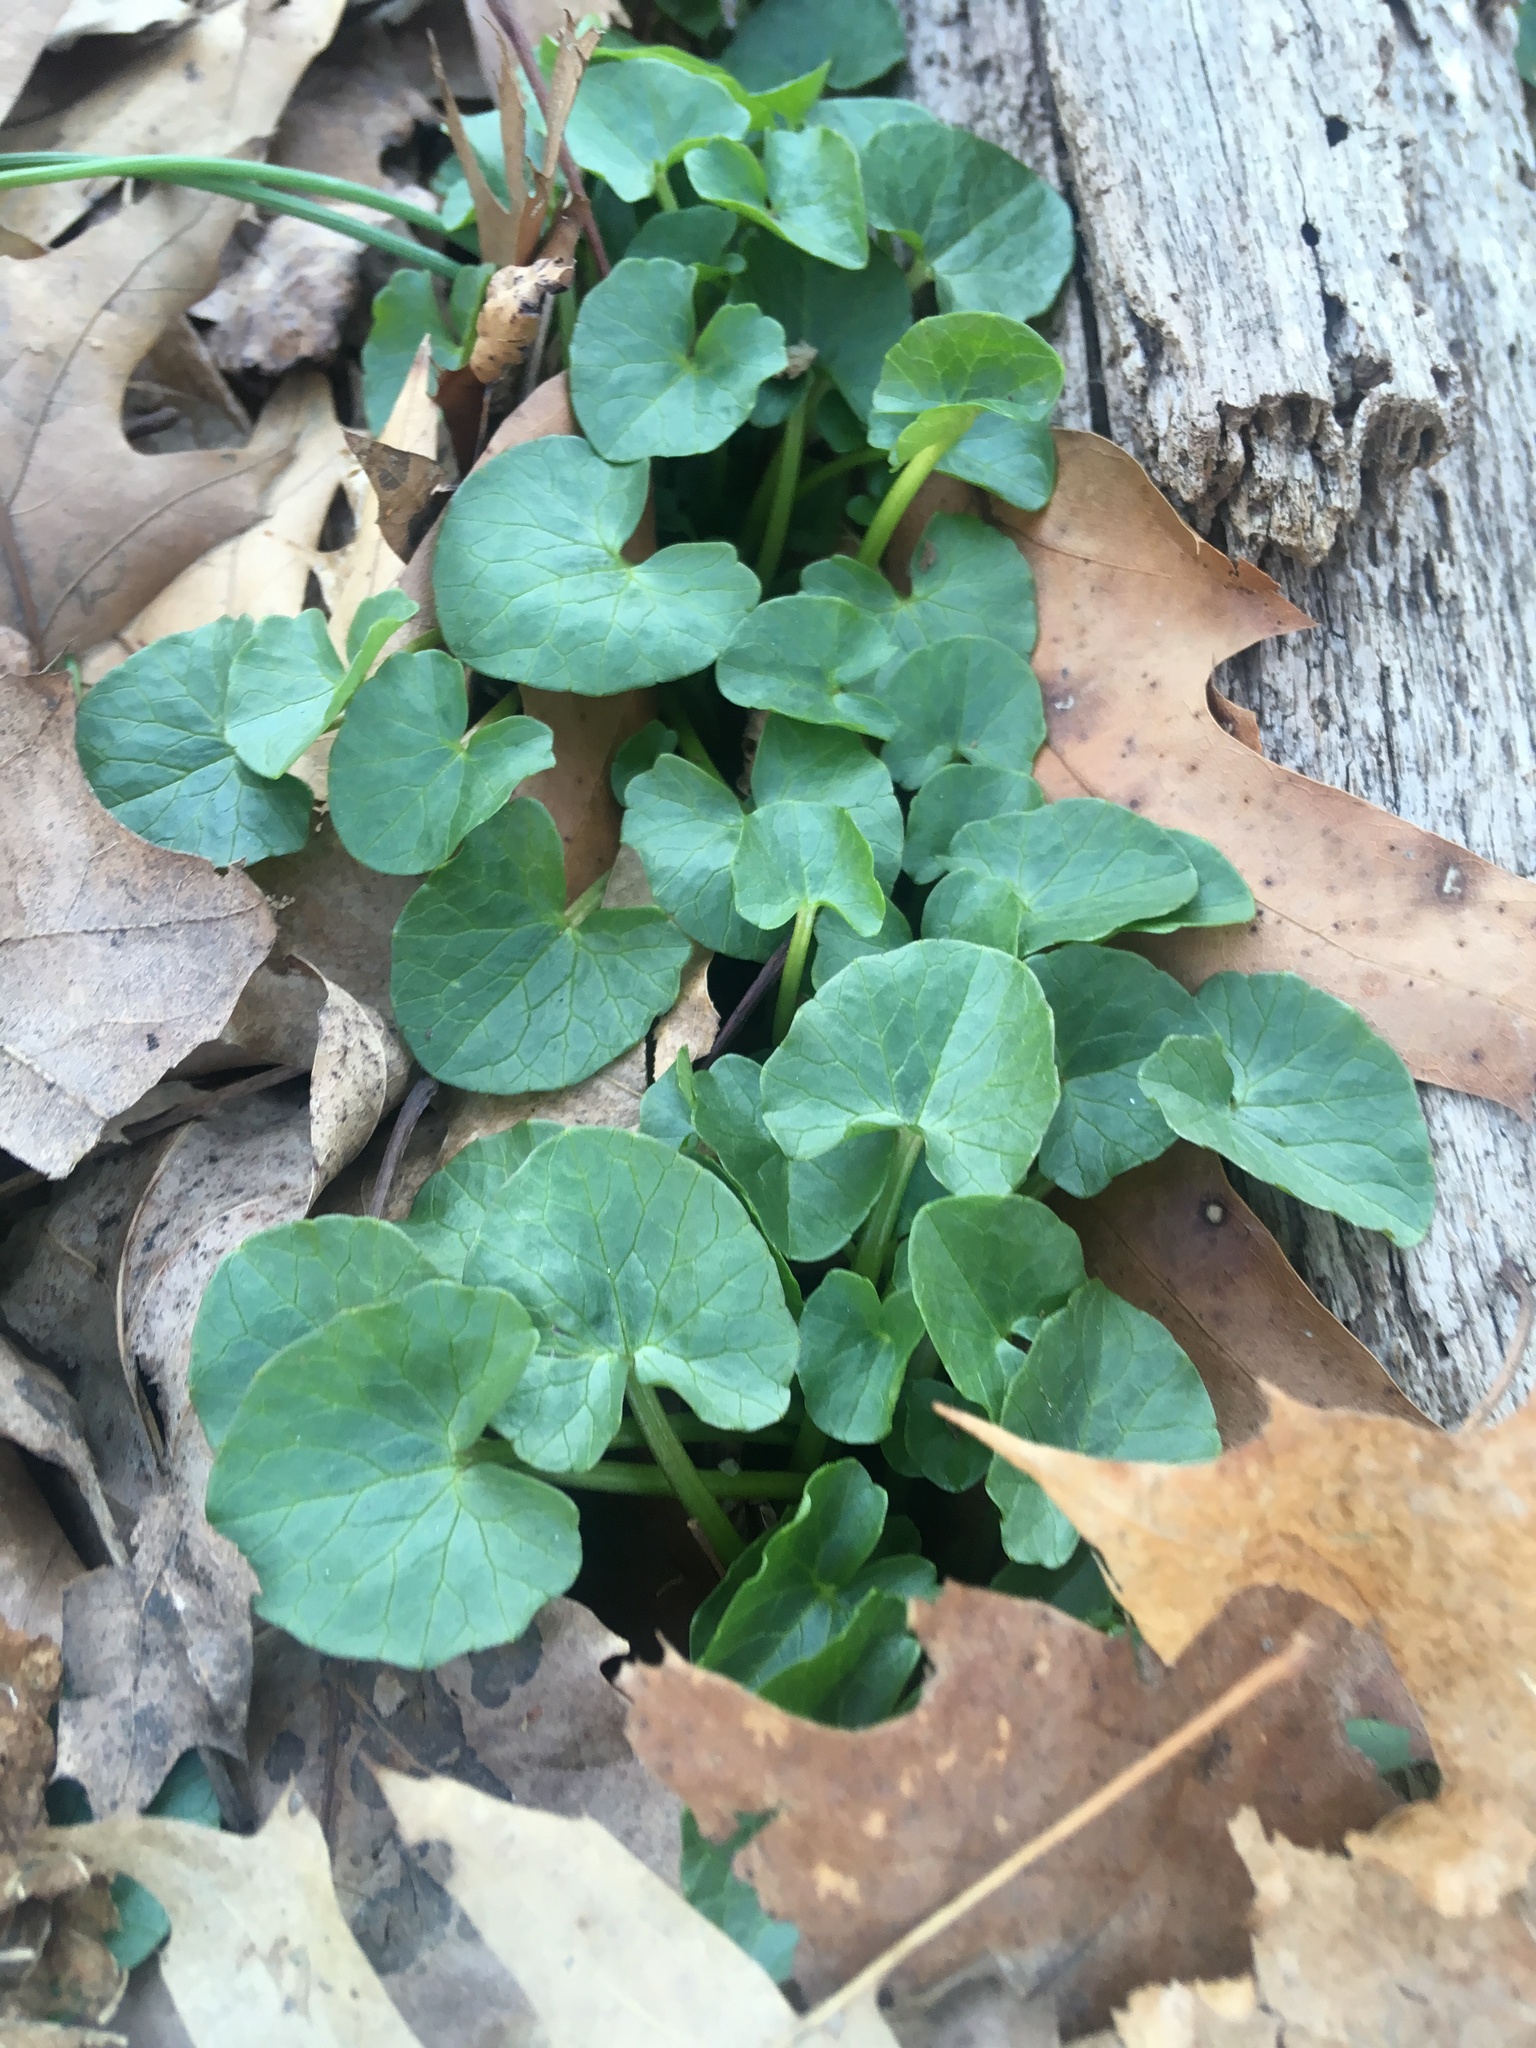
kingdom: Plantae
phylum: Tracheophyta
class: Magnoliopsida
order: Ranunculales
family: Ranunculaceae
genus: Ficaria
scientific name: Ficaria verna
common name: Lesser celandine
